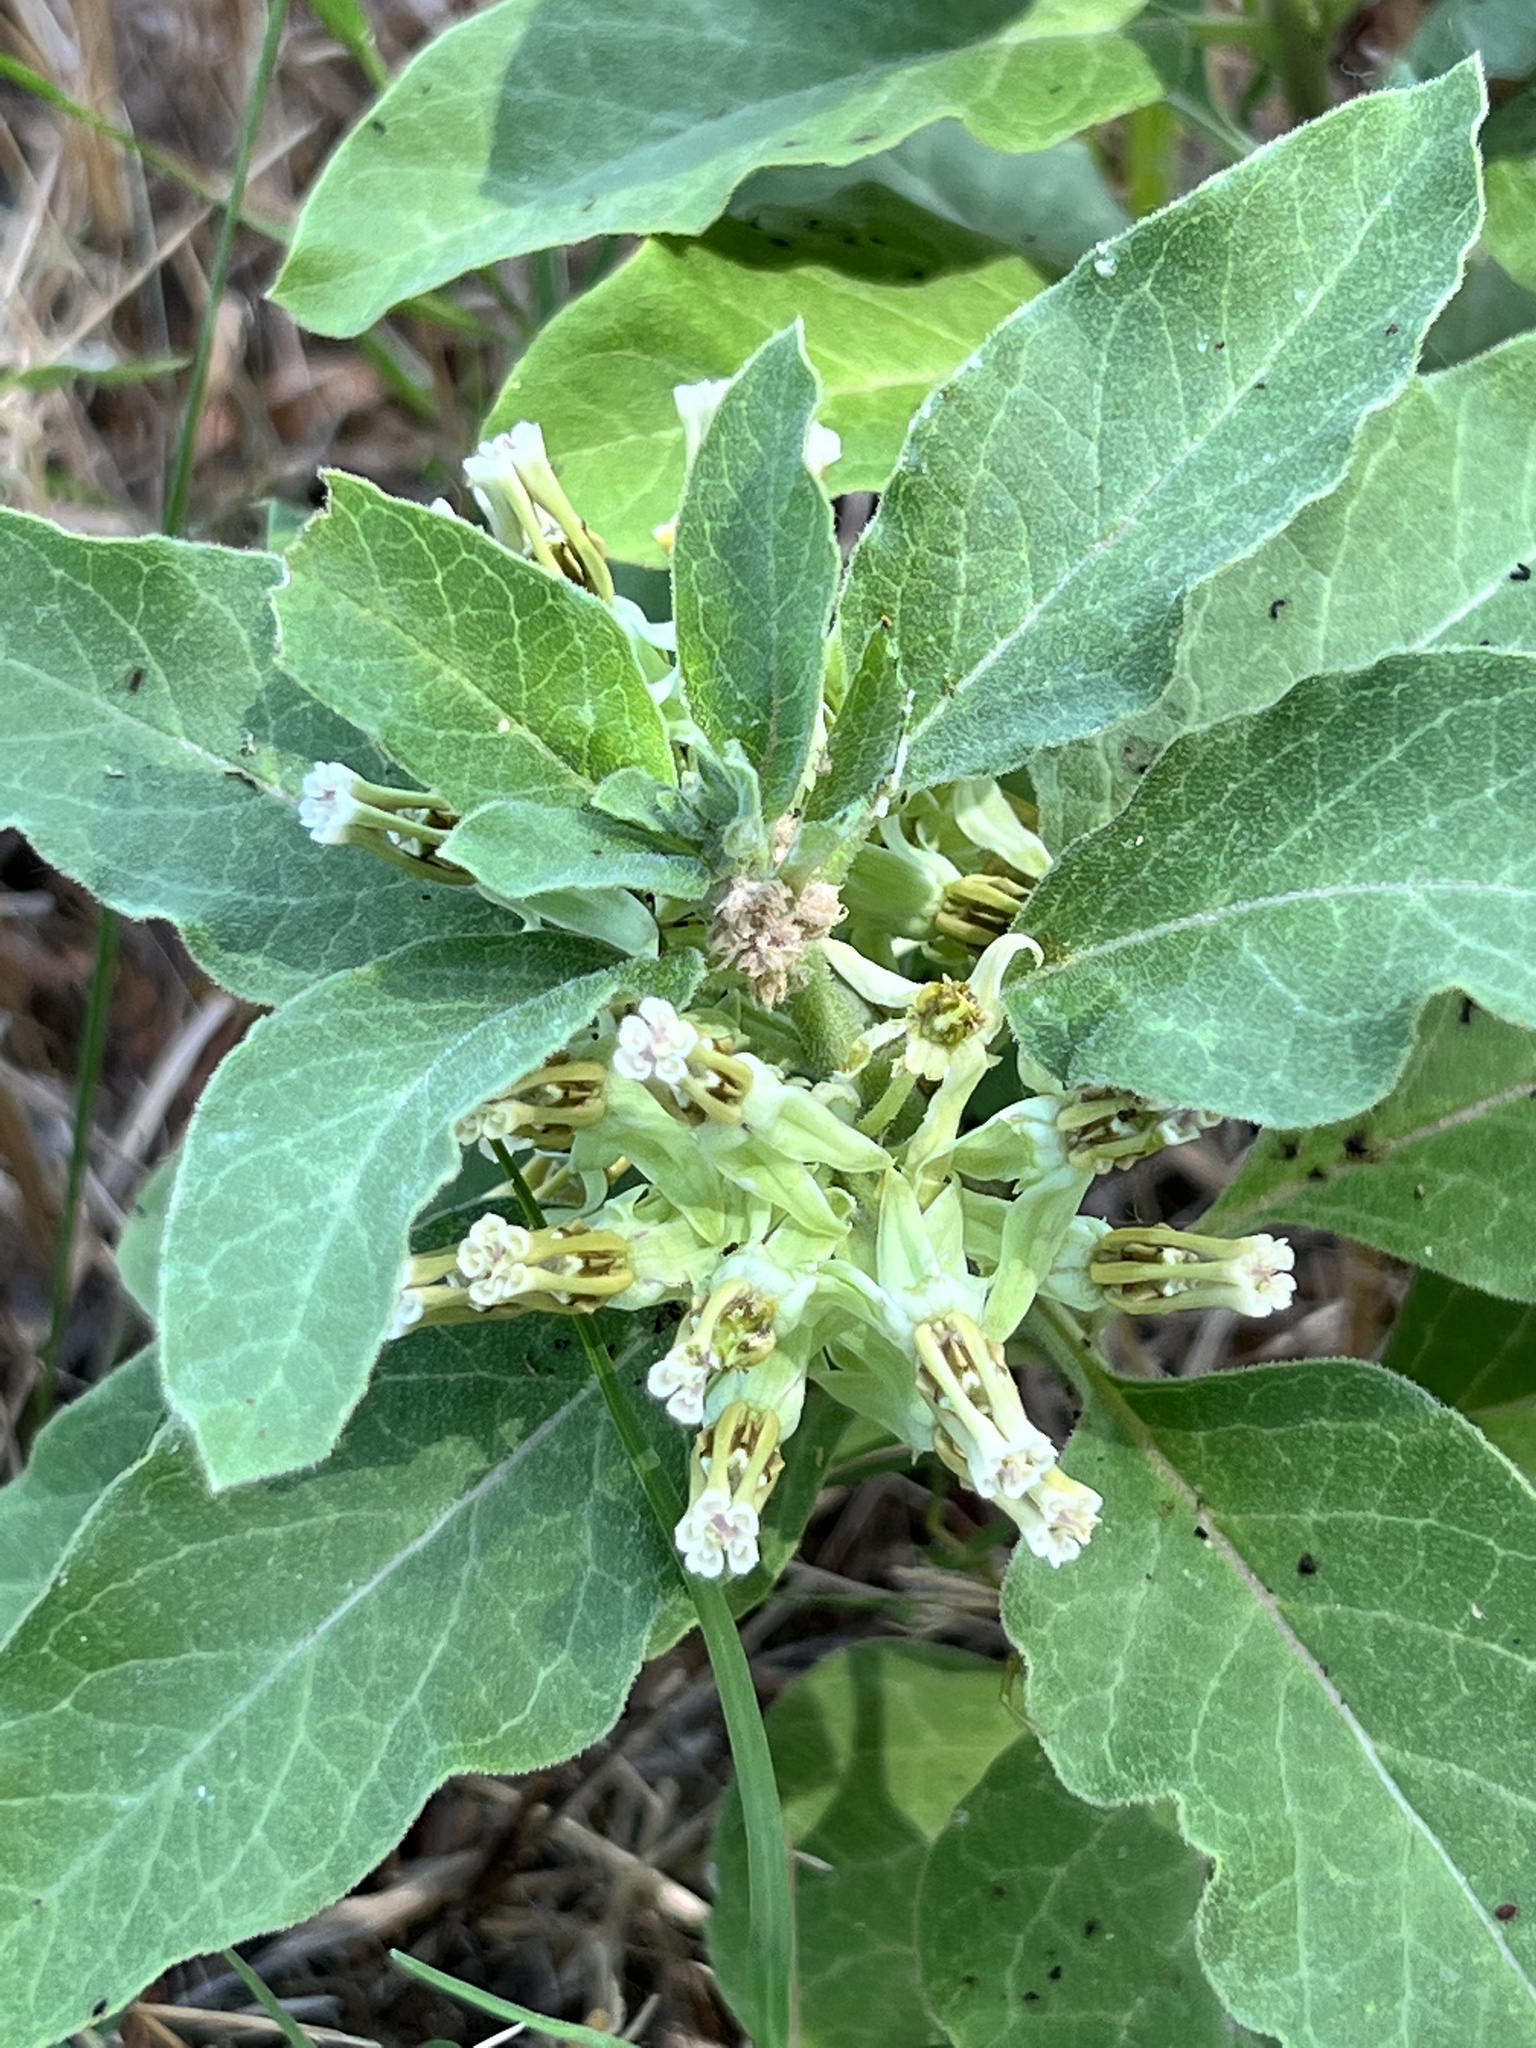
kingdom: Plantae
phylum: Tracheophyta
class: Magnoliopsida
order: Gentianales
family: Apocynaceae
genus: Asclepias
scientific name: Asclepias oenotheroides
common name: Zizotes milkweed
